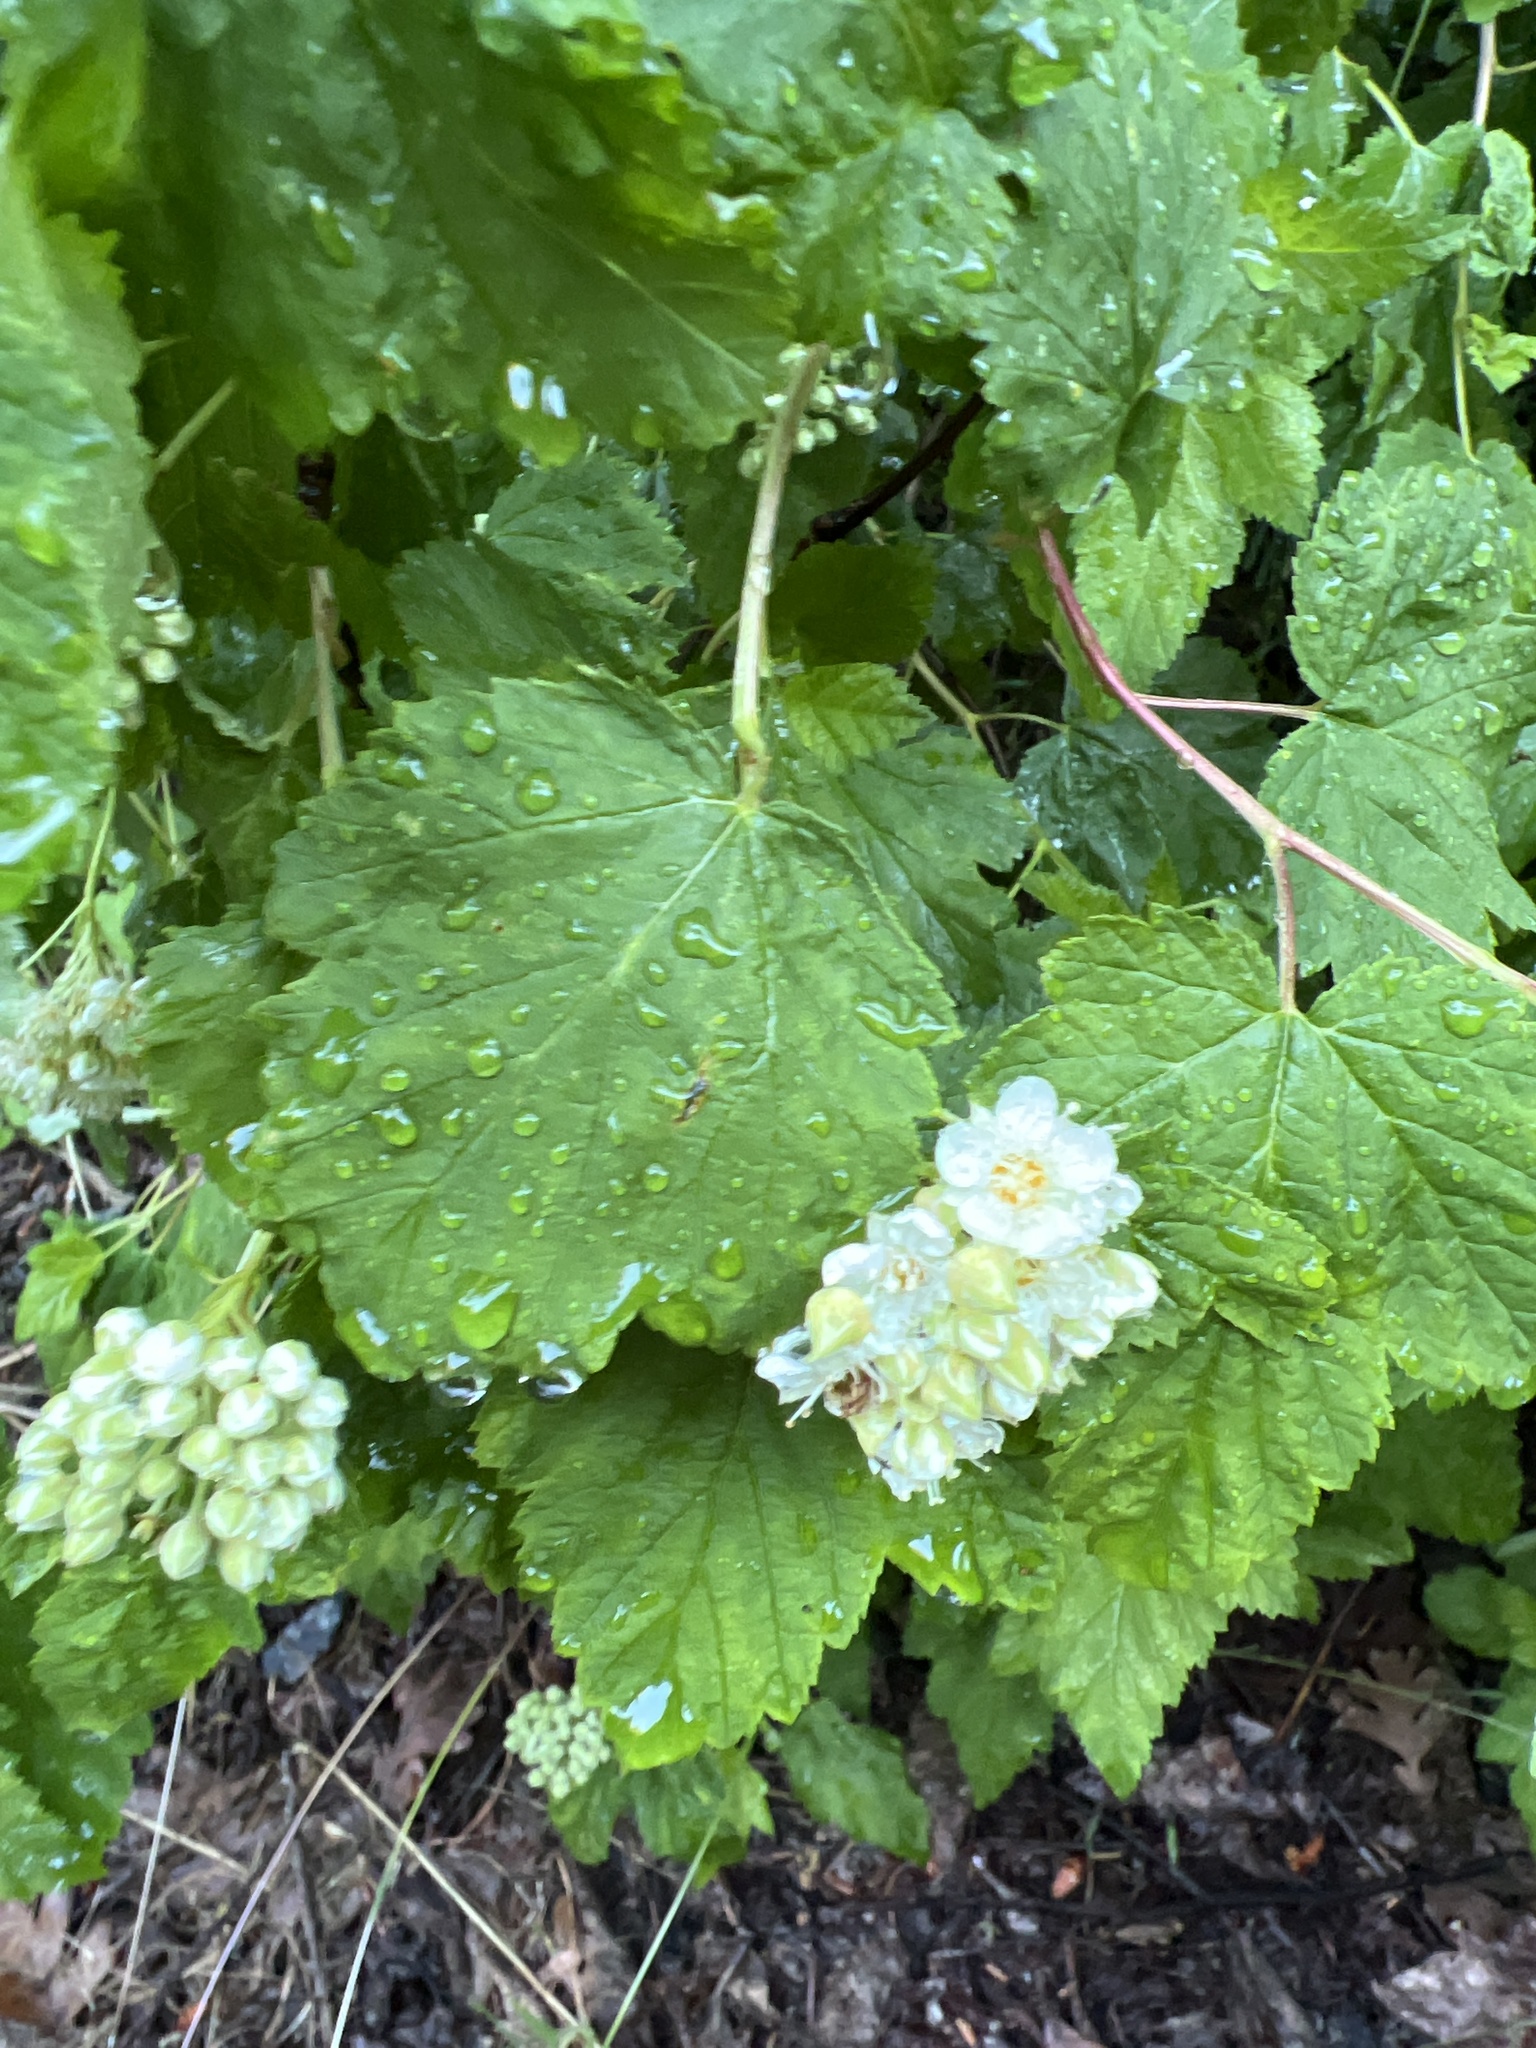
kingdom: Plantae
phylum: Tracheophyta
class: Magnoliopsida
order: Rosales
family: Rosaceae
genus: Physocarpus
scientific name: Physocarpus capitatus
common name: Pacific ninebark
